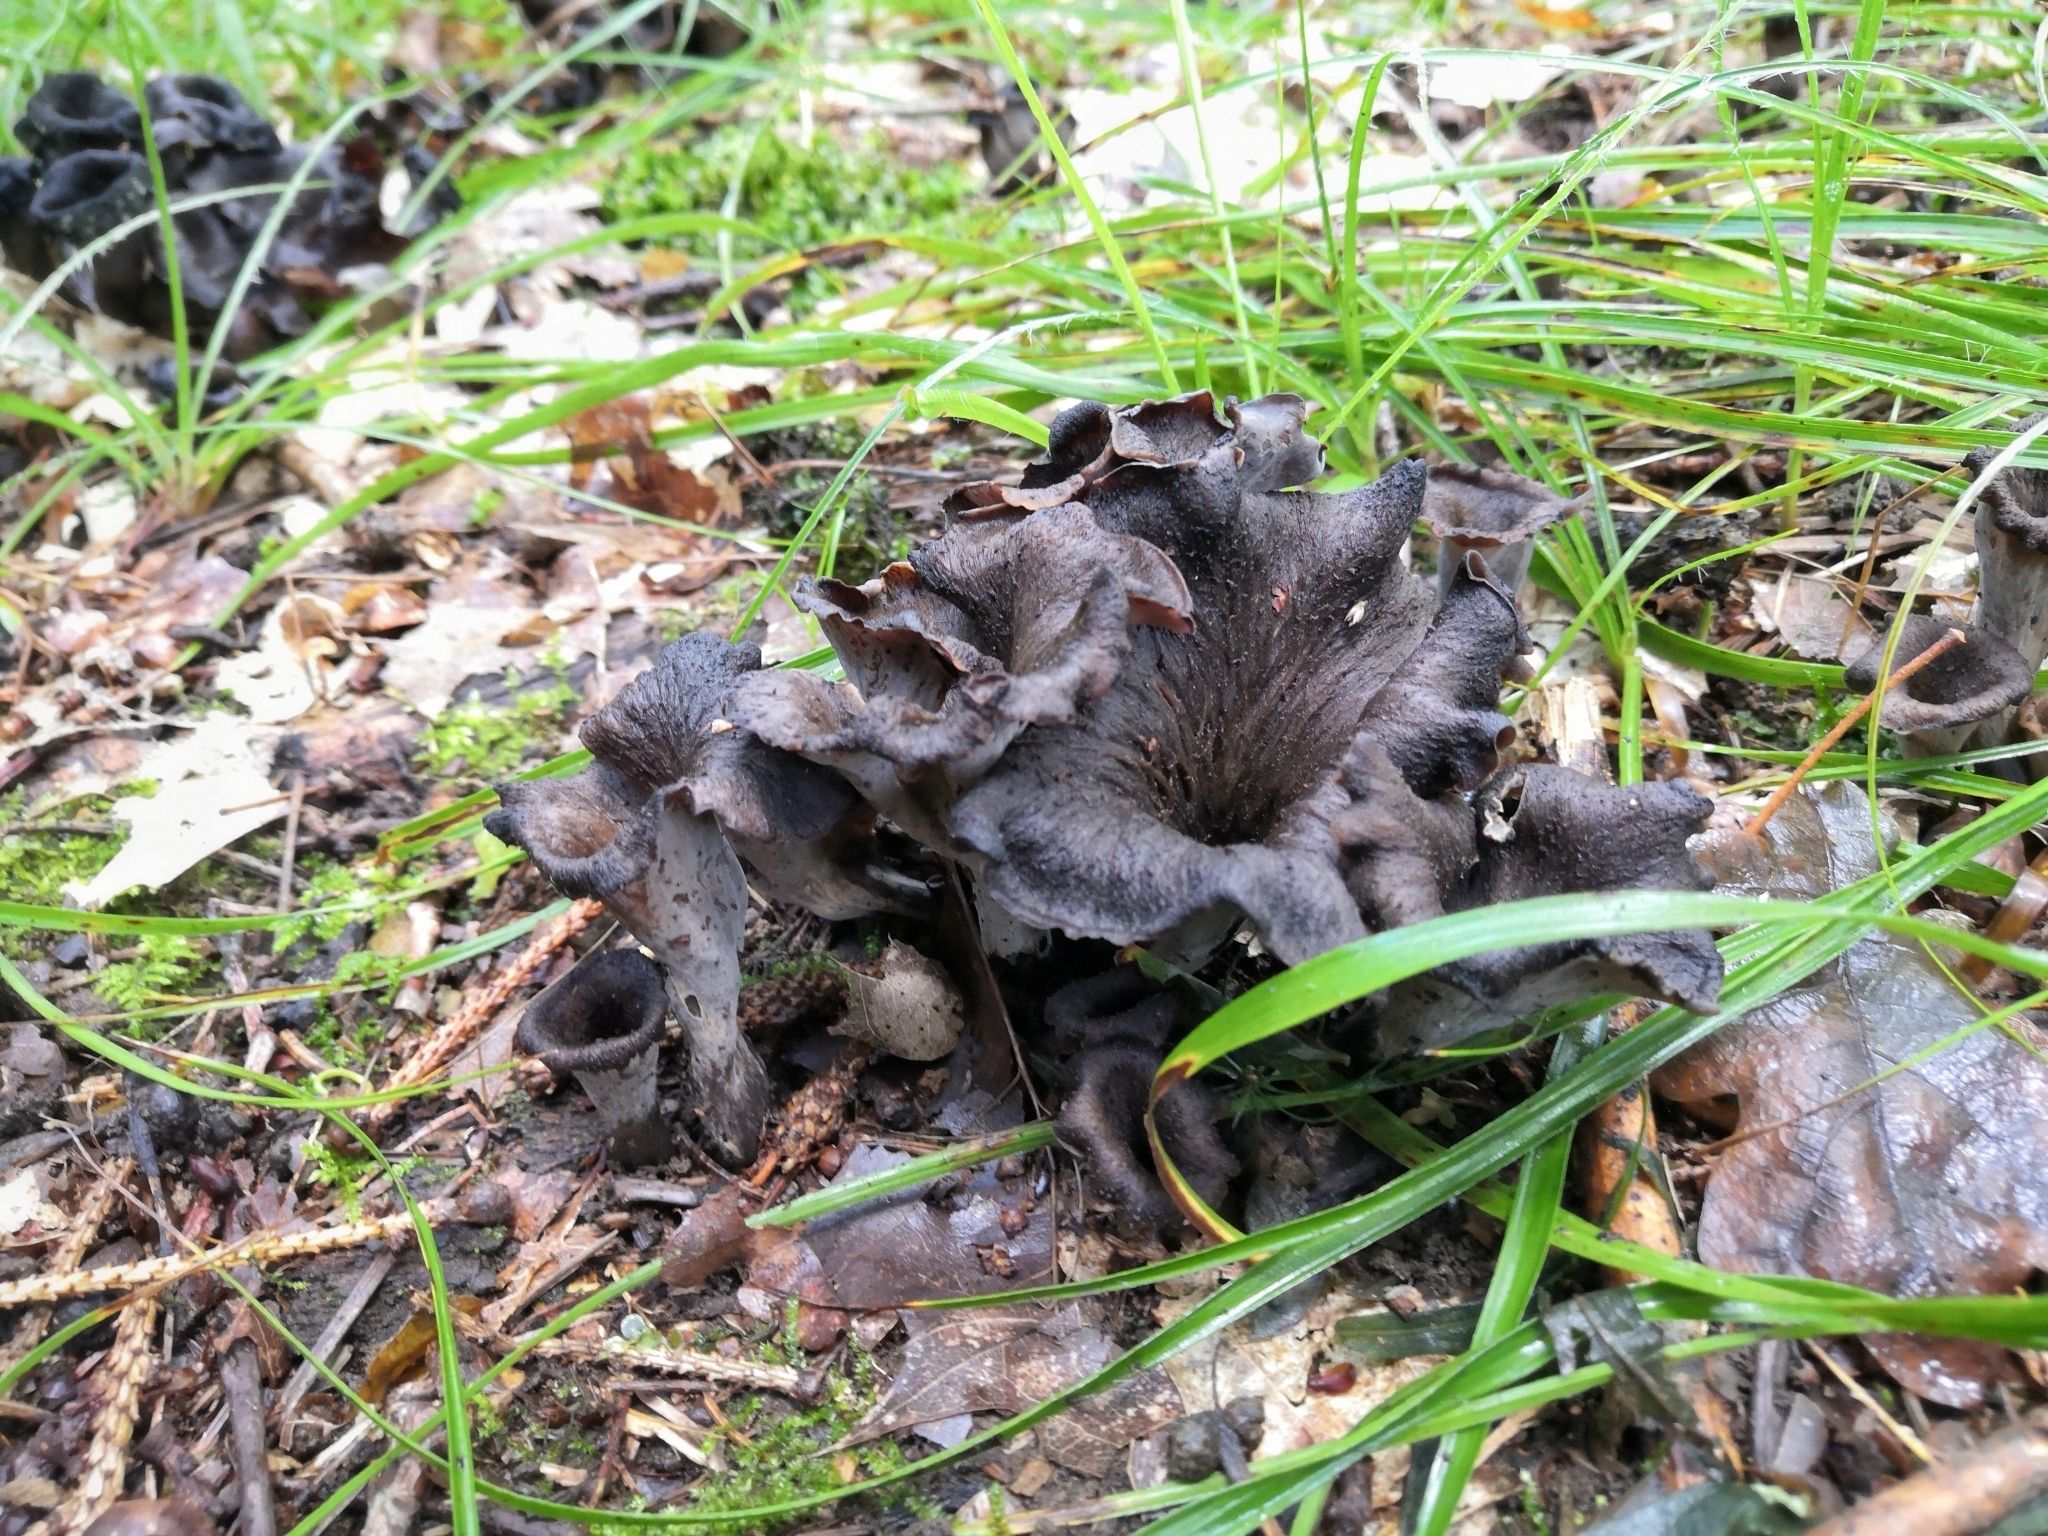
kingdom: Fungi
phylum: Basidiomycota
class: Agaricomycetes
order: Cantharellales
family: Hydnaceae
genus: Craterellus
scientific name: Craterellus cornucopioides
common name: Horn of plenty
